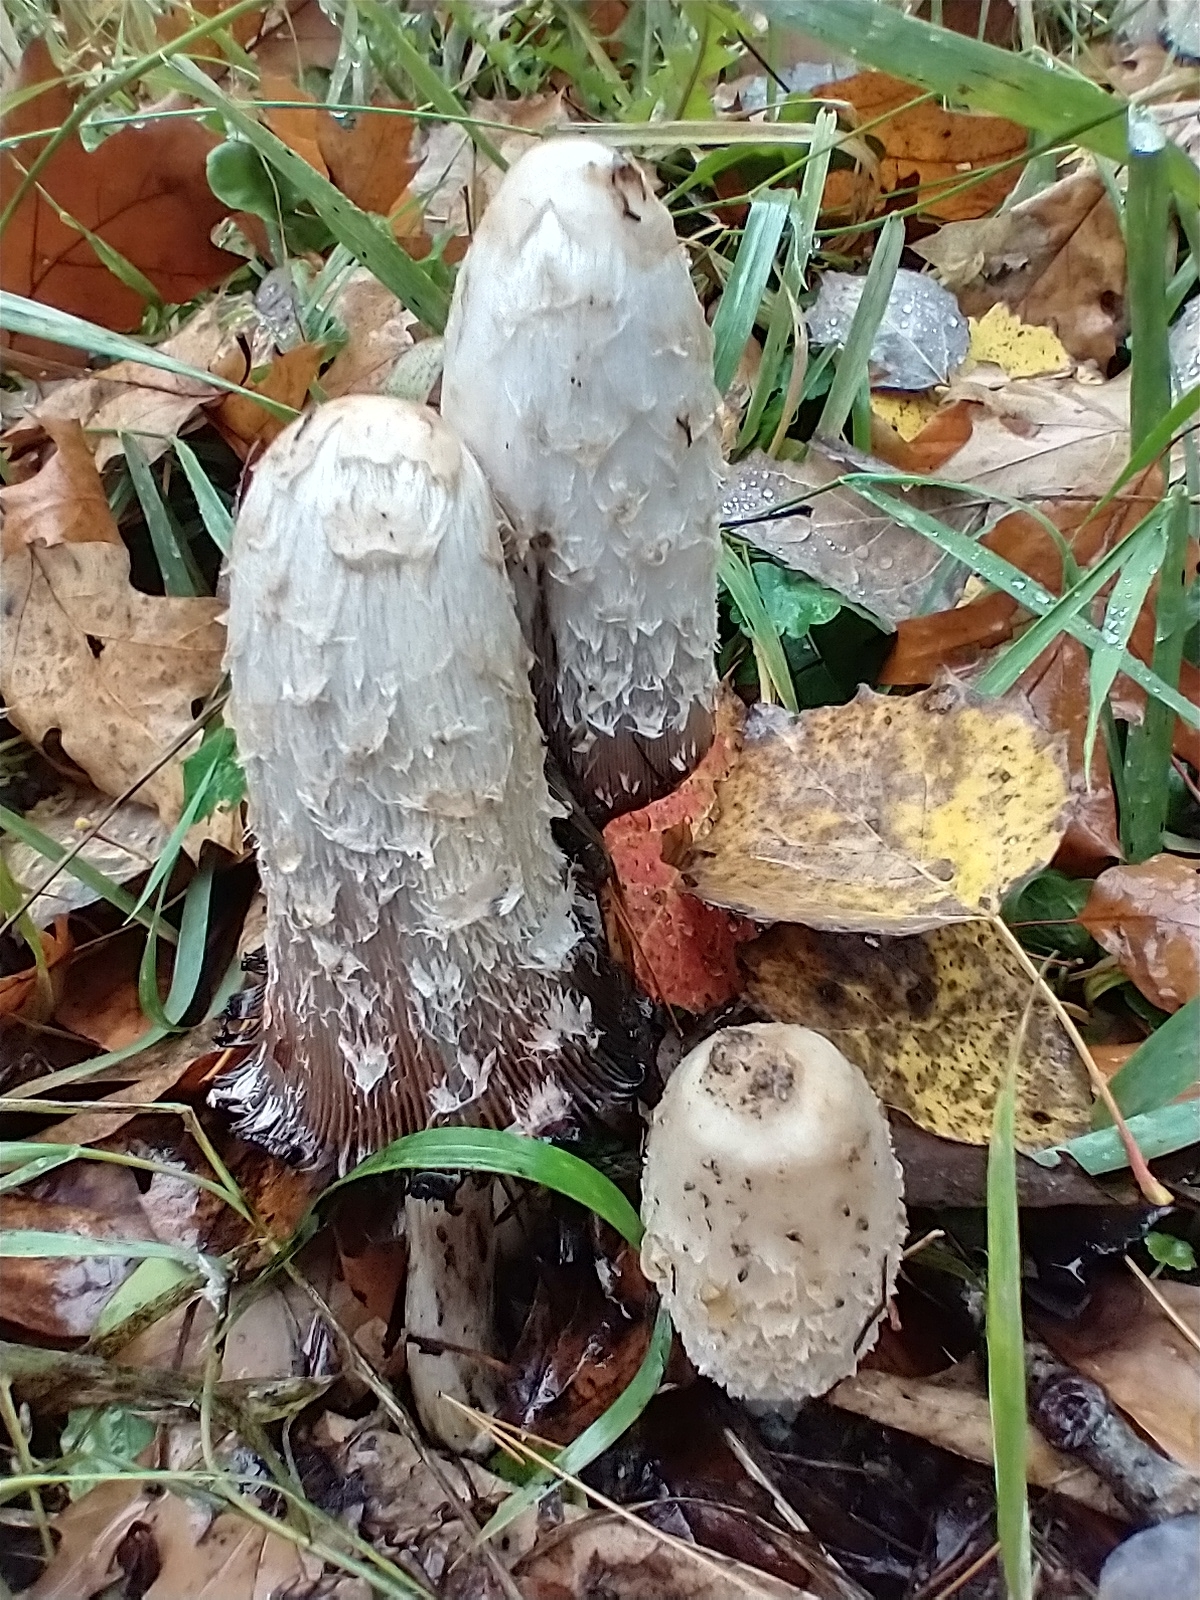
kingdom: Fungi
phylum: Basidiomycota
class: Agaricomycetes
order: Agaricales
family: Agaricaceae
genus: Coprinus
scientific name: Coprinus comatus
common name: Lawyer's wig
